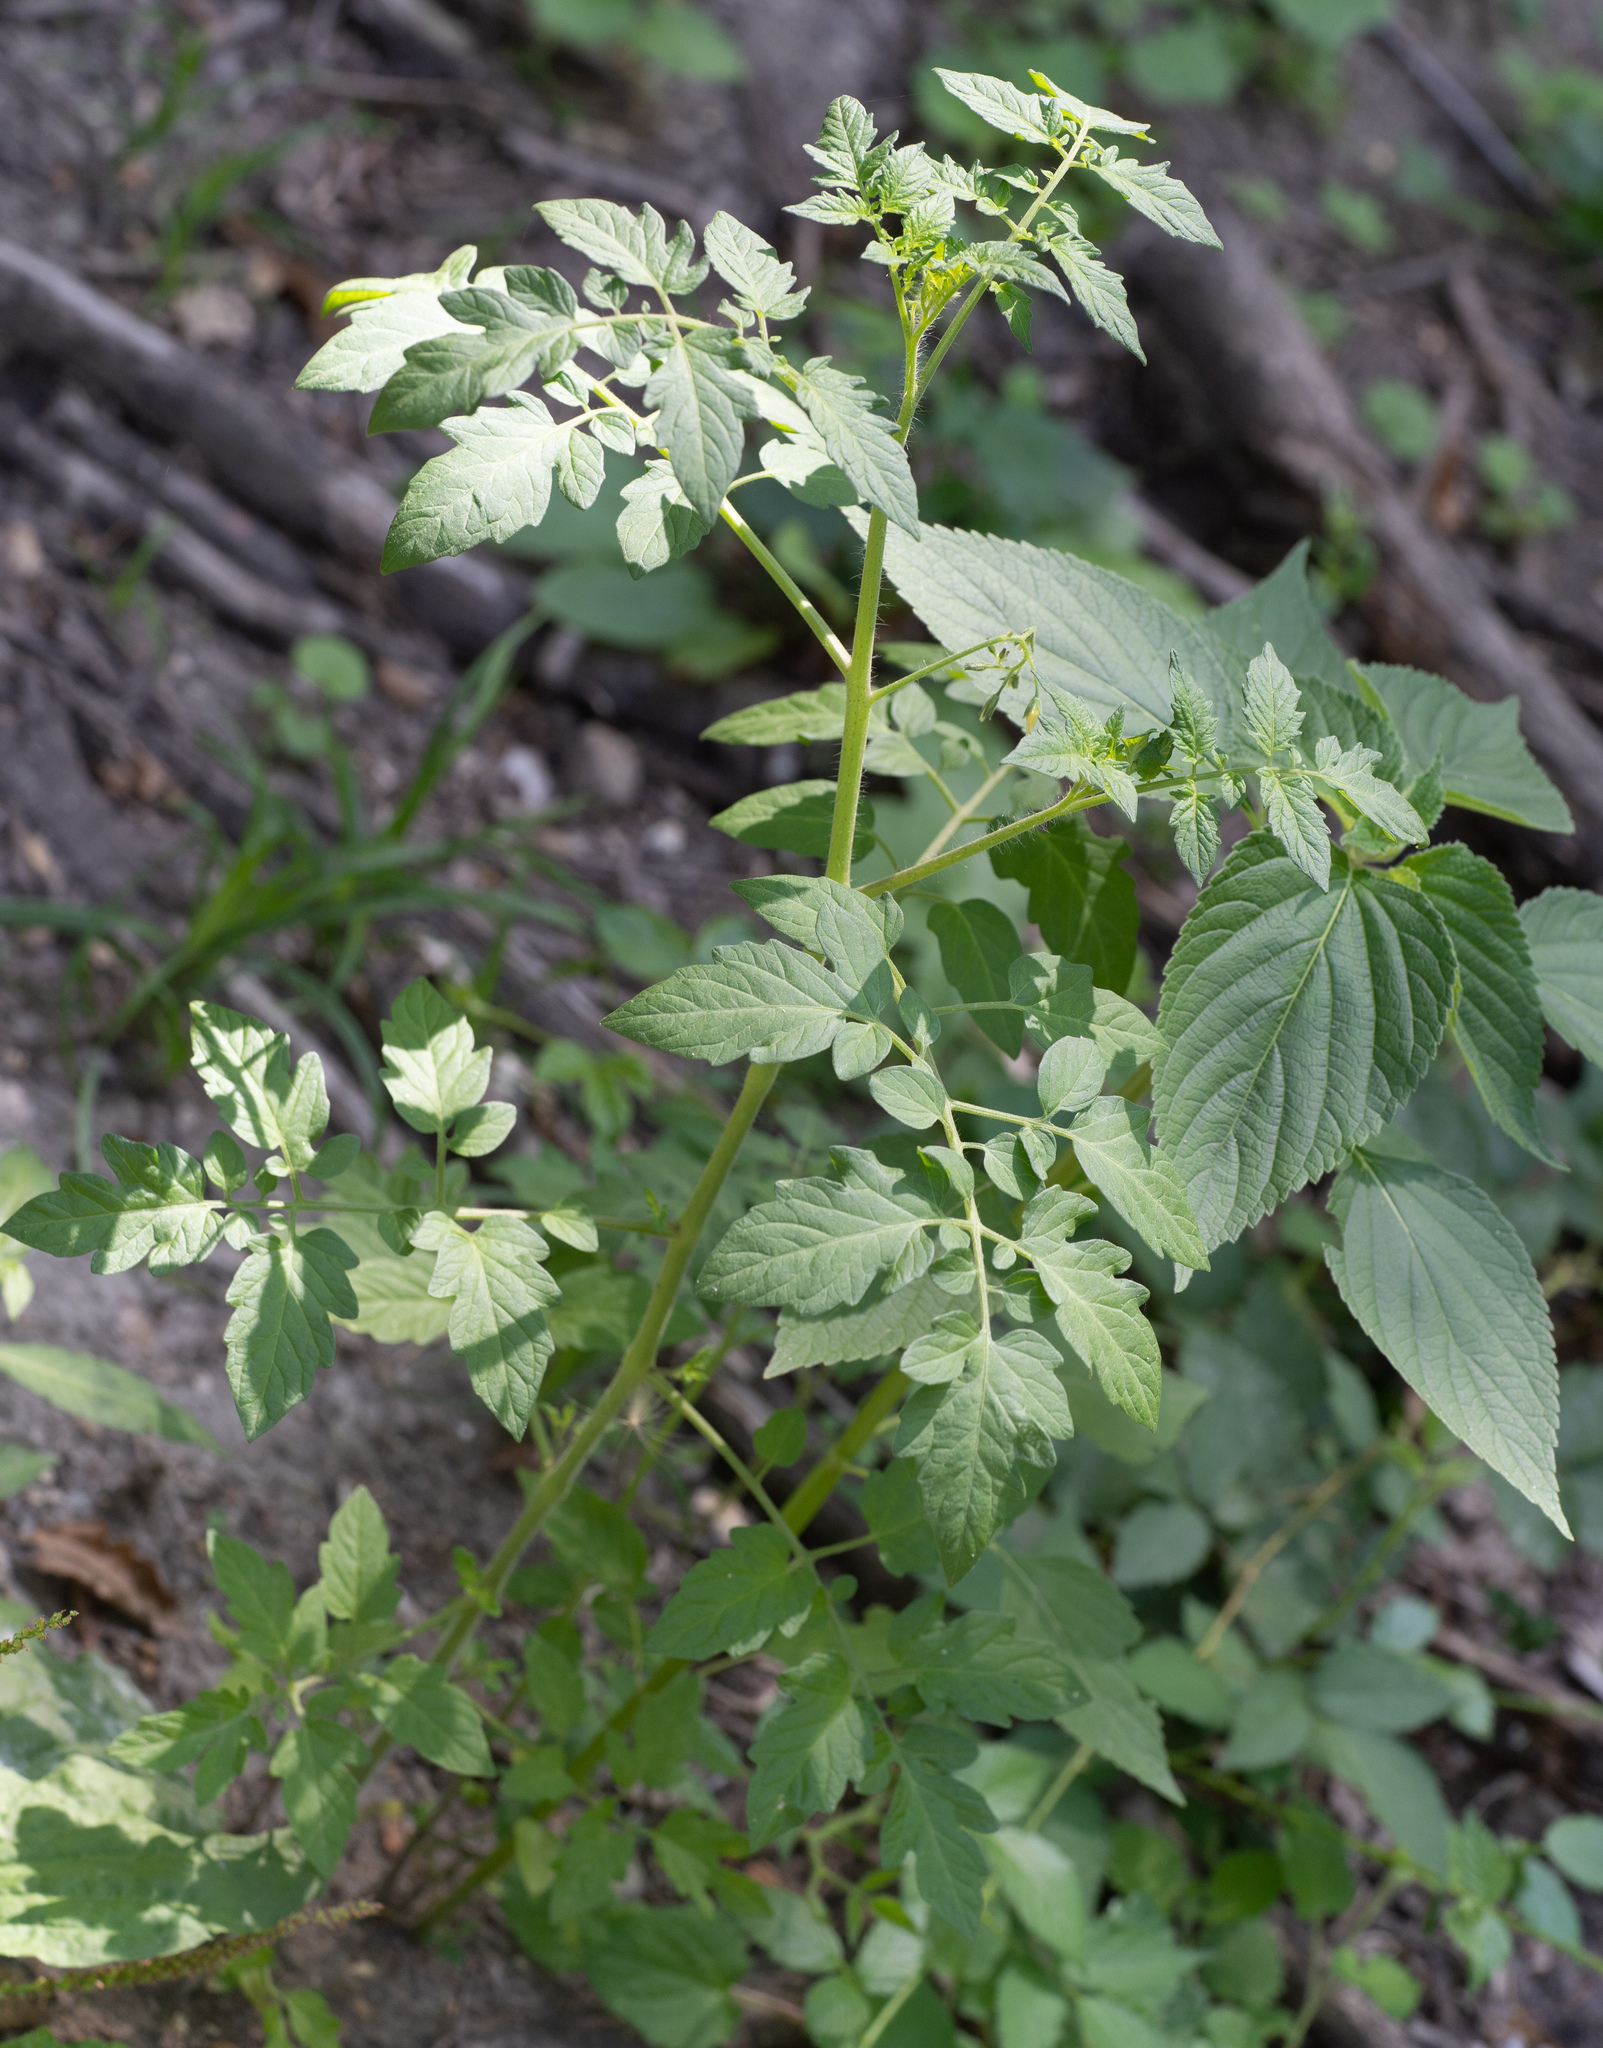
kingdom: Plantae
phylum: Tracheophyta
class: Magnoliopsida
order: Solanales
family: Solanaceae
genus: Solanum
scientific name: Solanum lycopersicum
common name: Garden tomato
